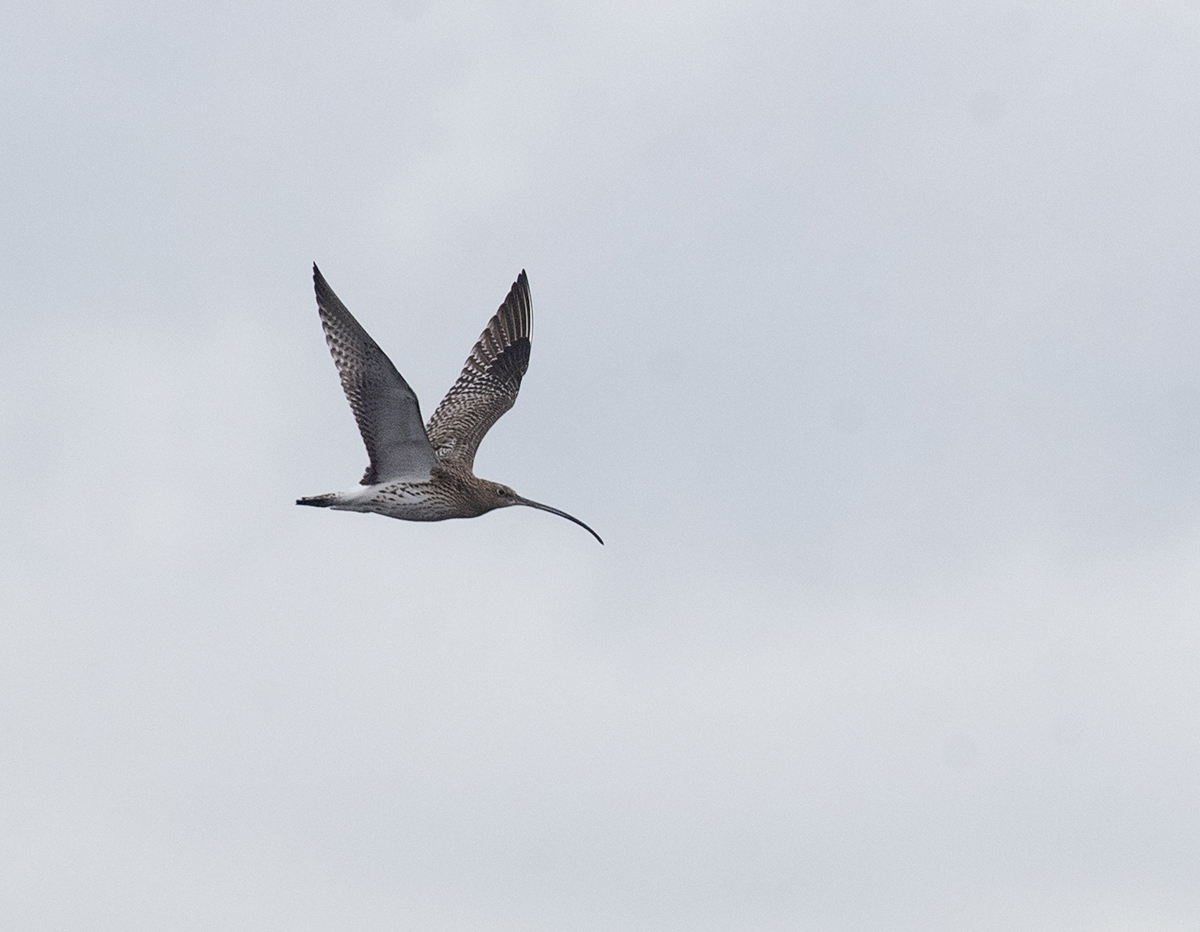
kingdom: Animalia
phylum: Chordata
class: Aves
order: Charadriiformes
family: Scolopacidae
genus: Numenius
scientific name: Numenius arquata
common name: Eurasian curlew
